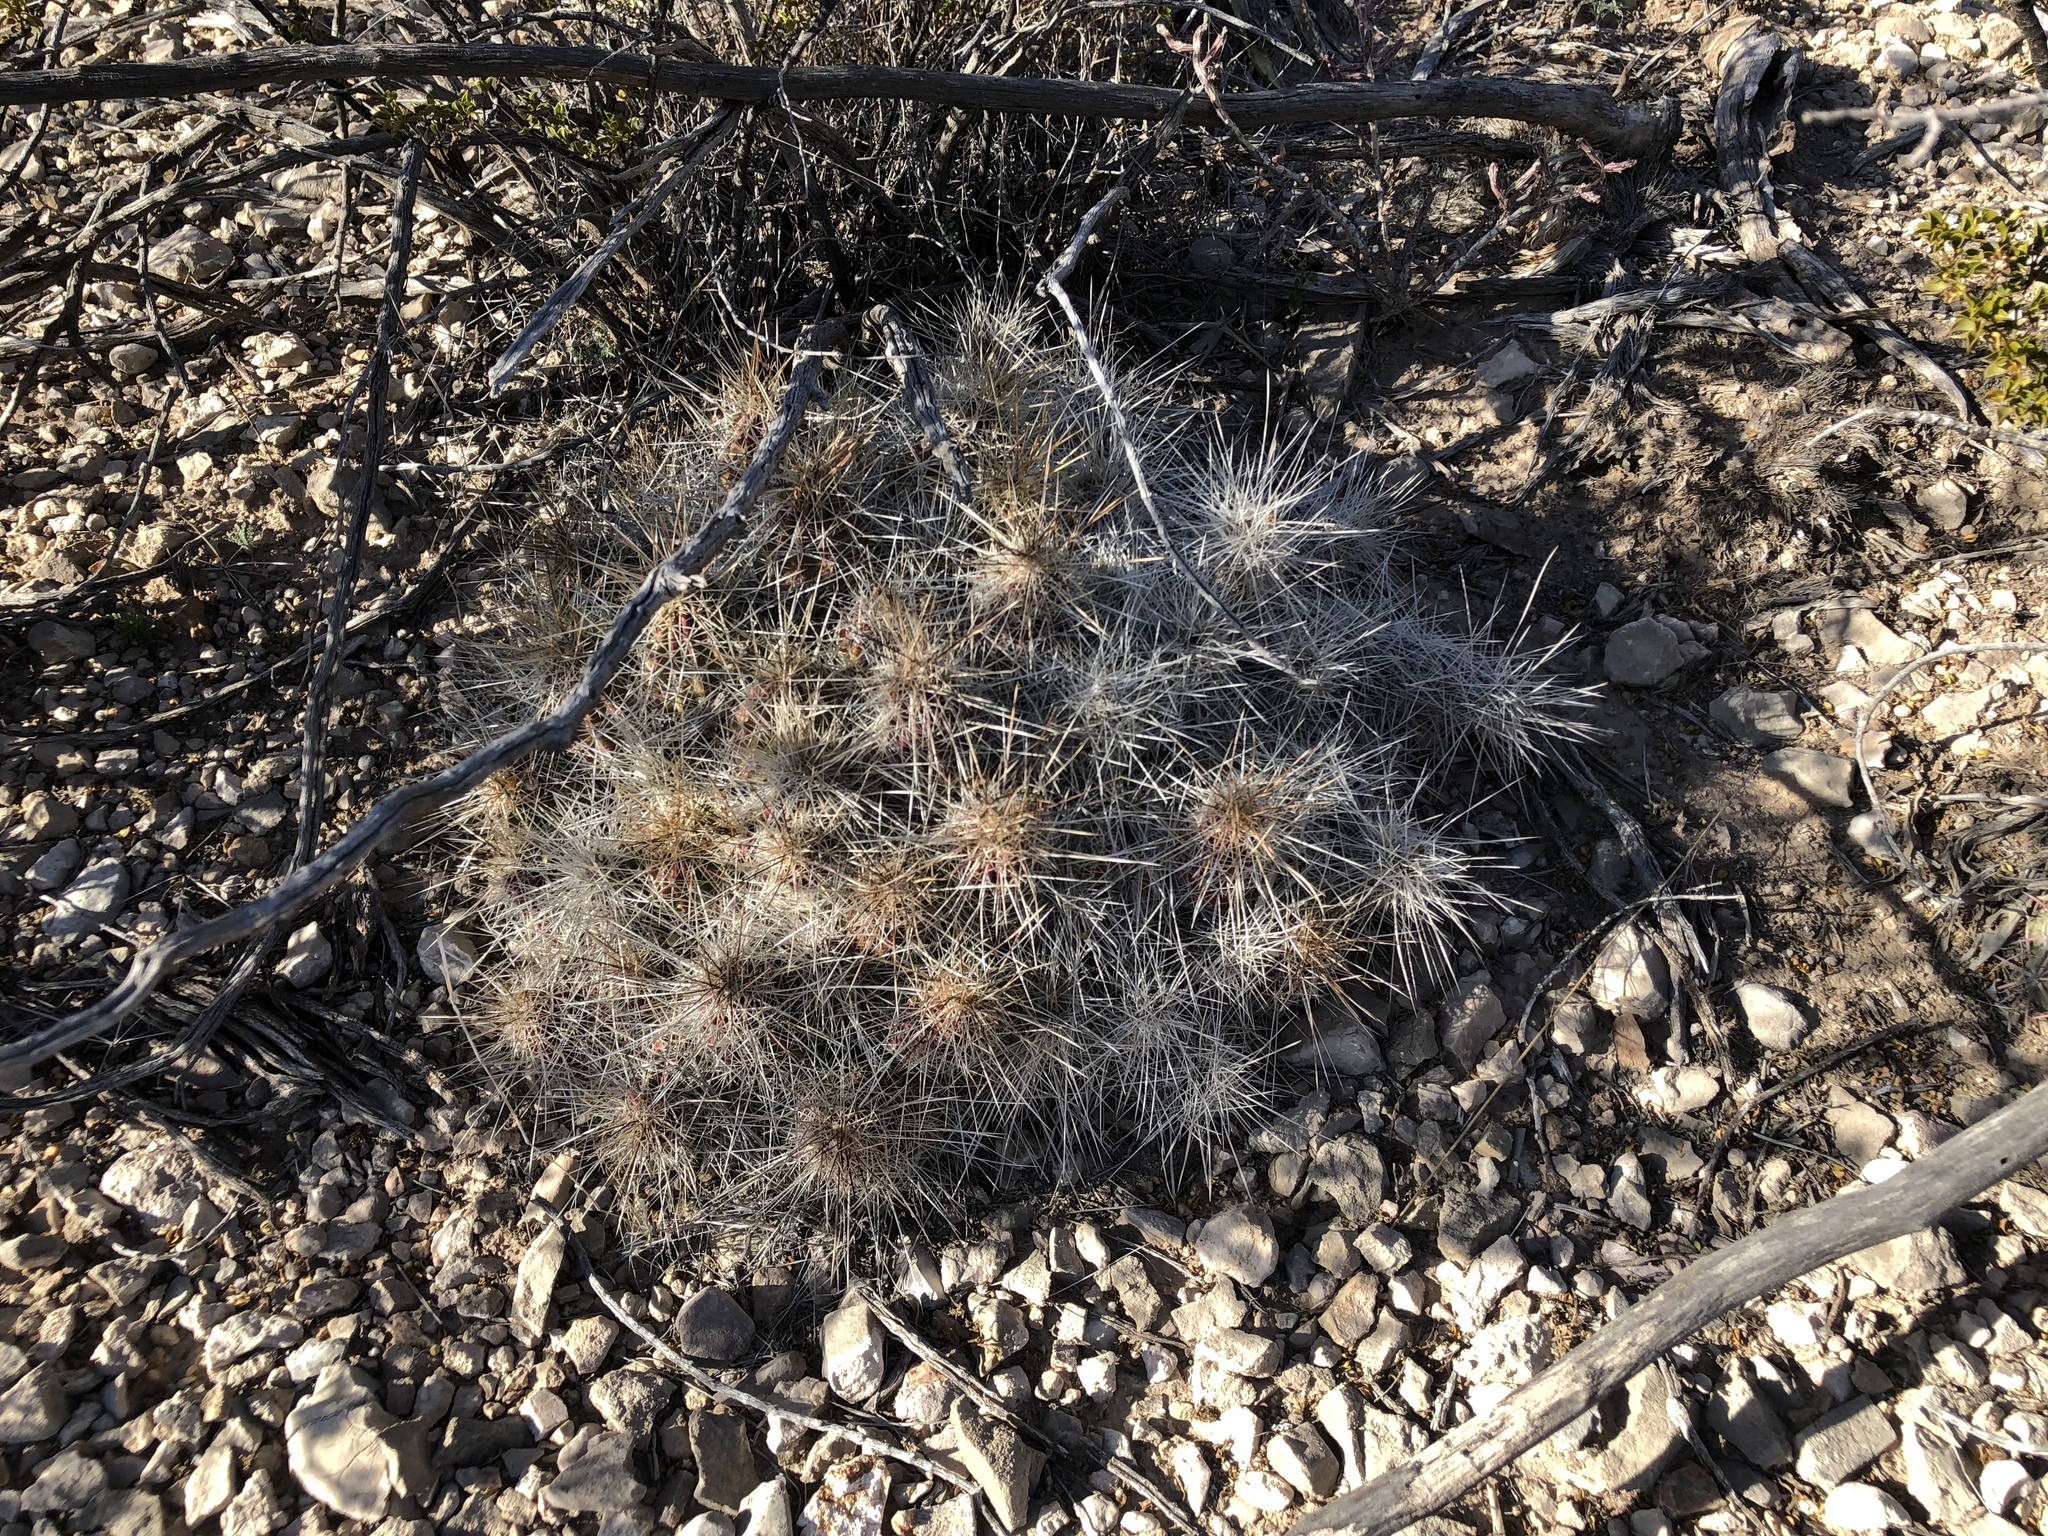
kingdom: Plantae
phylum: Tracheophyta
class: Magnoliopsida
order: Caryophyllales
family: Cactaceae
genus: Echinocereus
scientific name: Echinocereus stramineus
